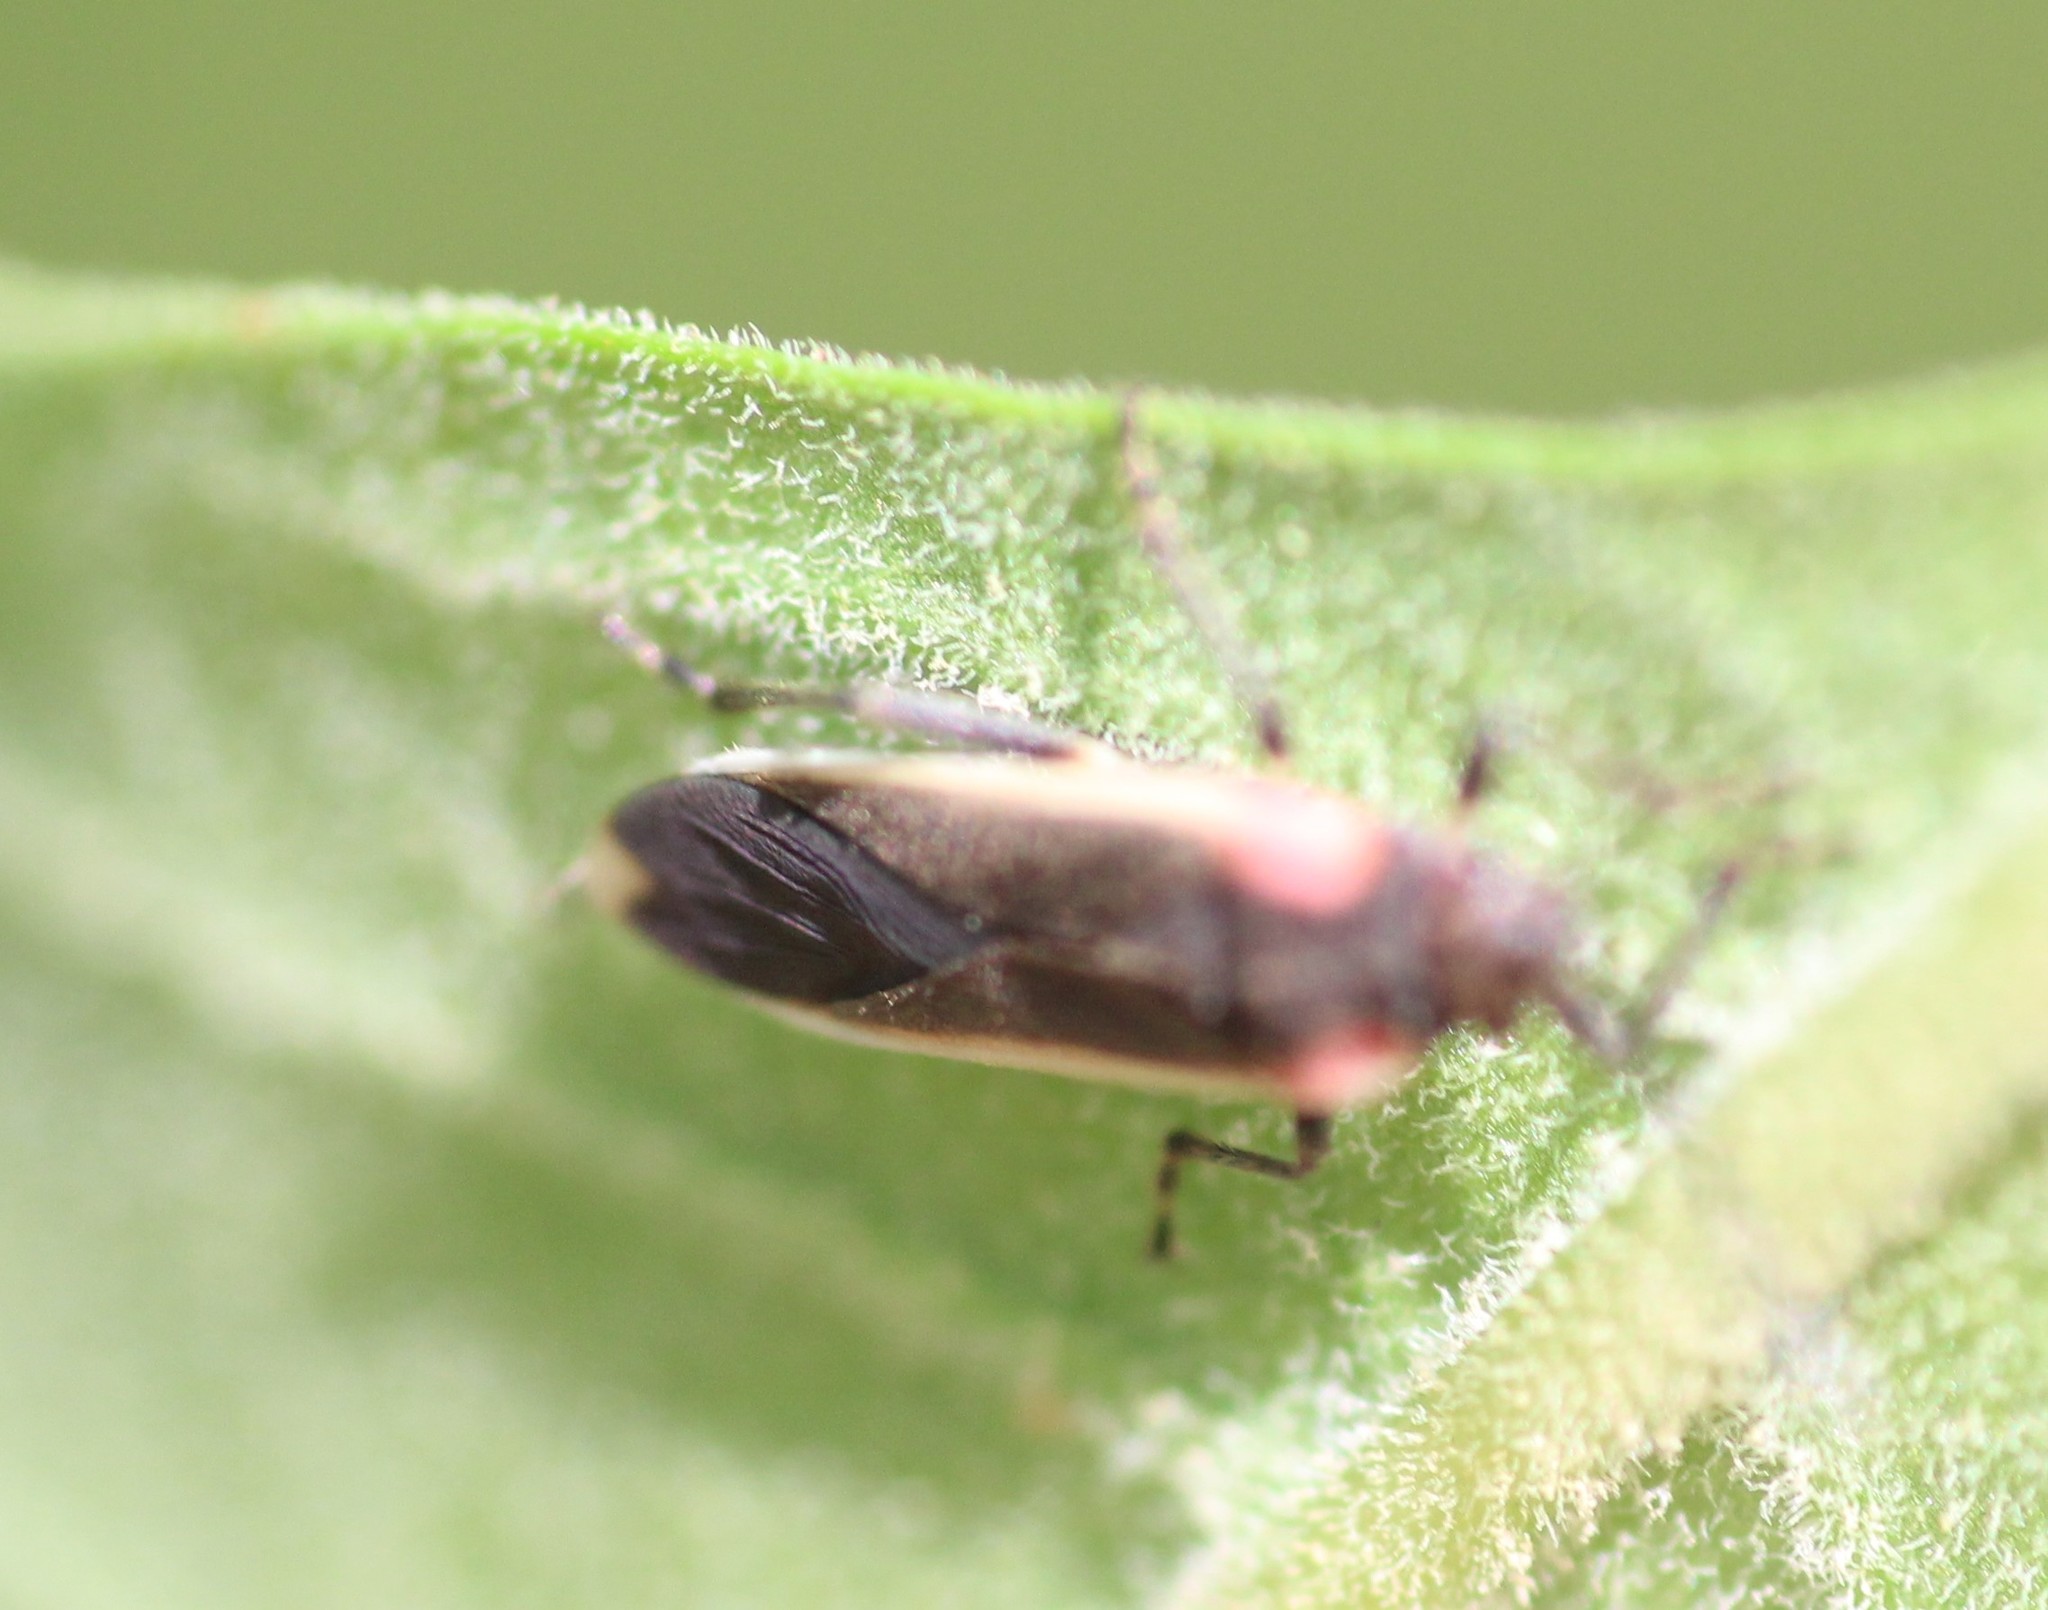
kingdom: Animalia
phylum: Arthropoda
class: Insecta
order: Hemiptera
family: Lygaeidae
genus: Acroleucus
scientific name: Acroleucus coxalis
